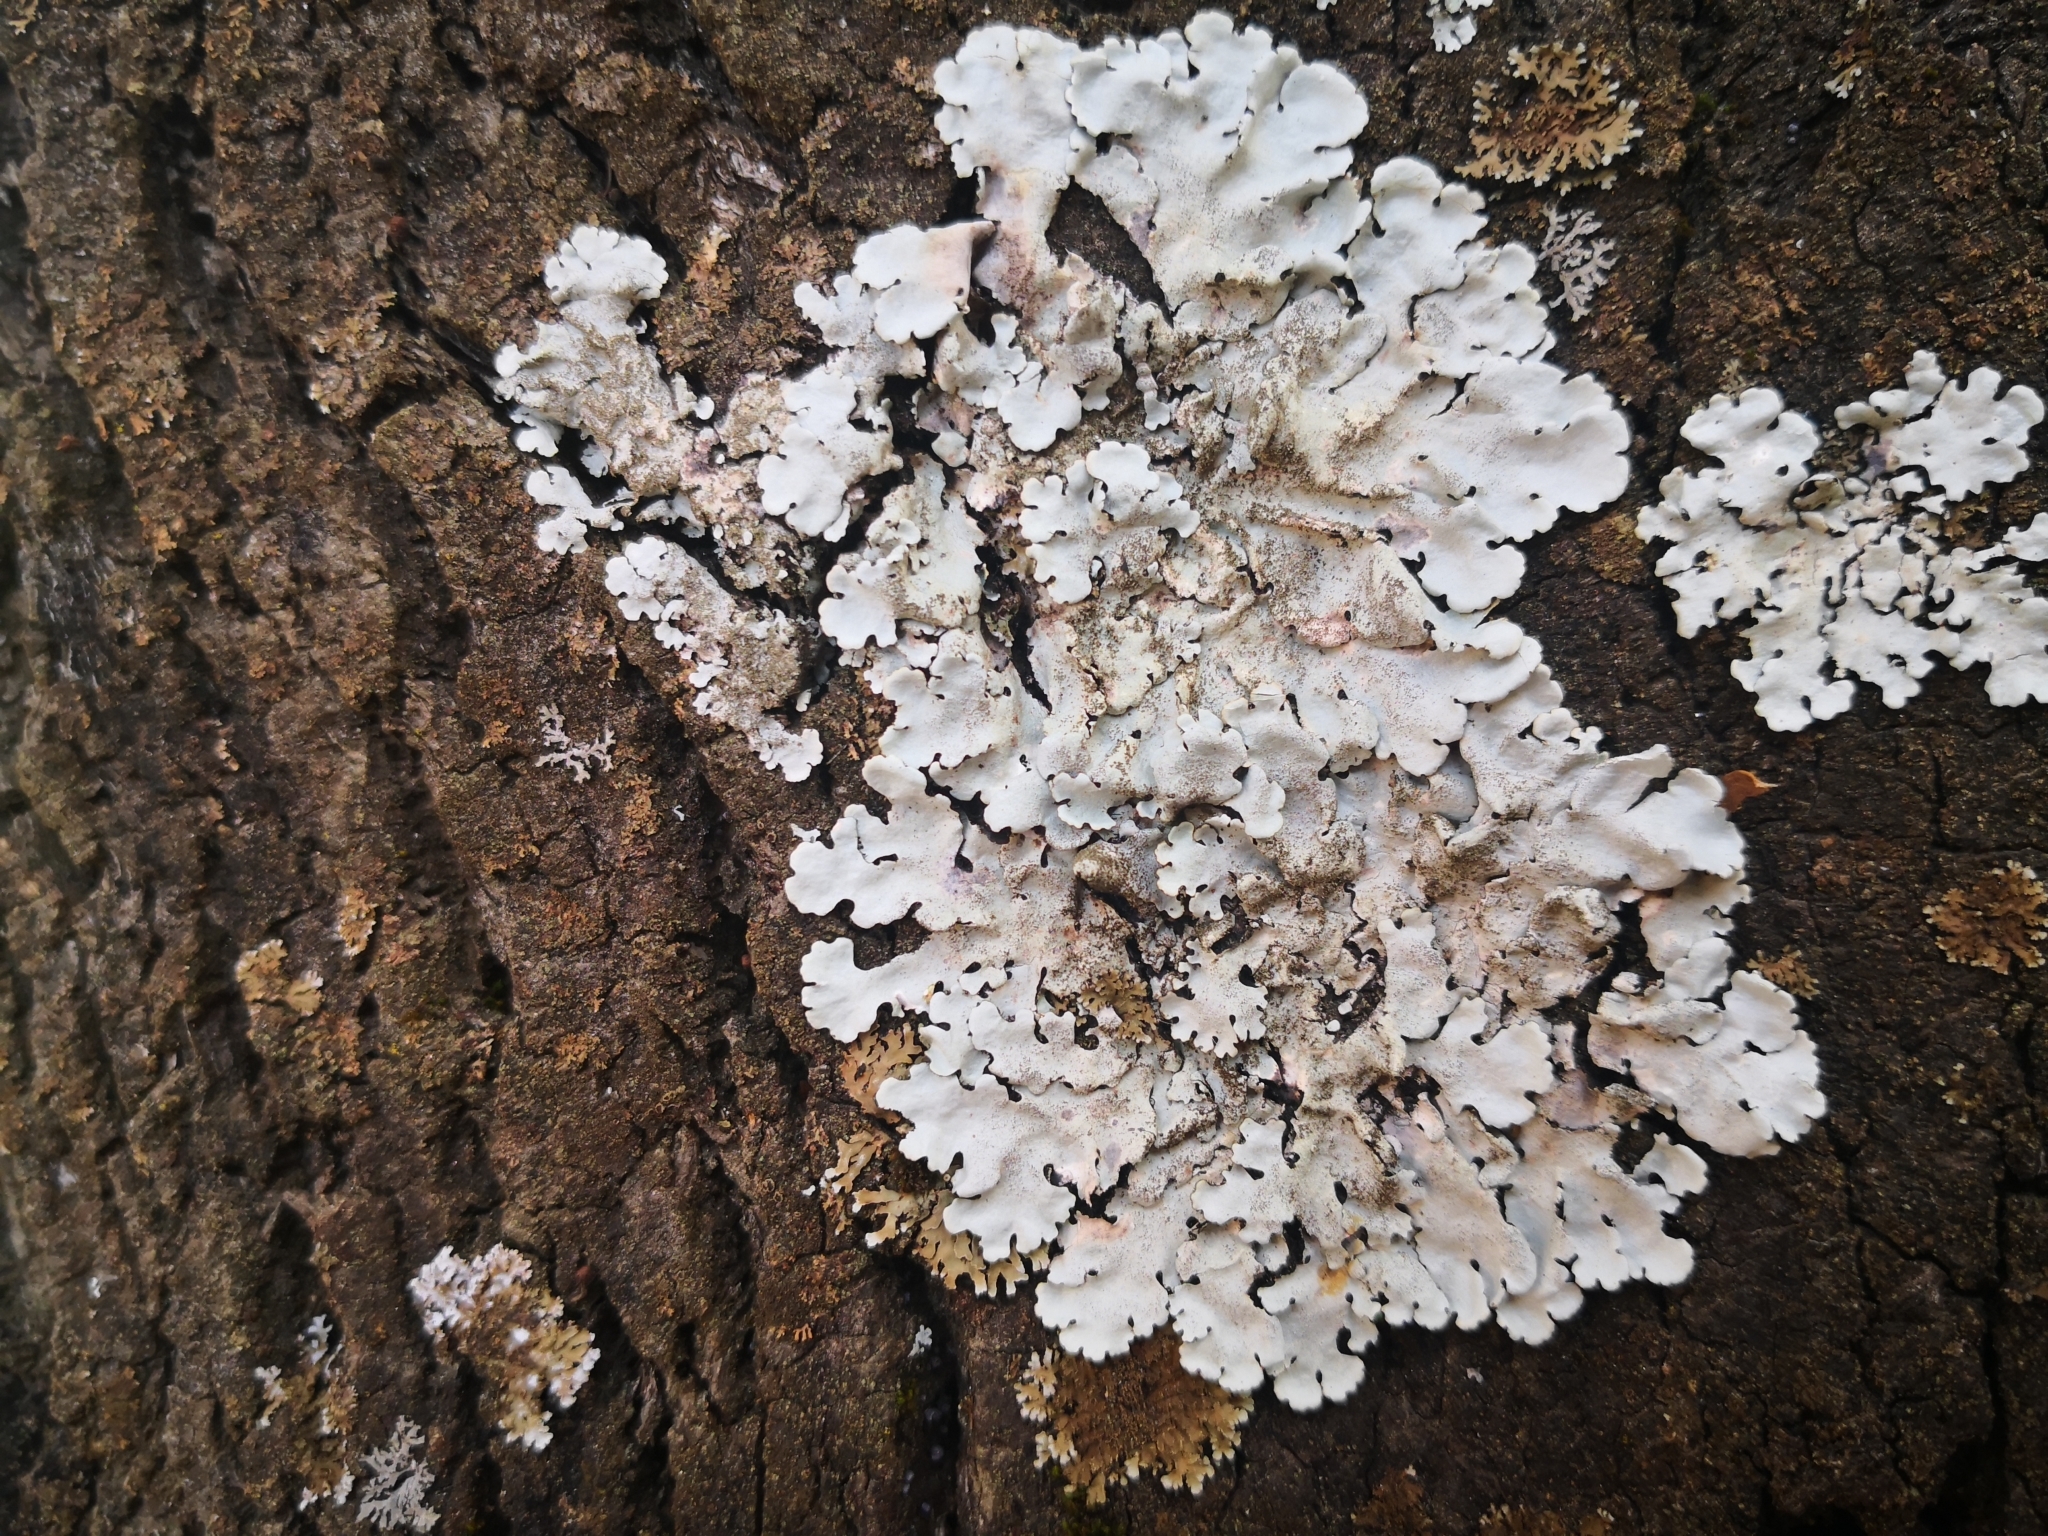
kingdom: Fungi
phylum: Ascomycota
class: Lecanoromycetes
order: Lecanorales
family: Parmeliaceae
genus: Parmelina
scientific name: Parmelina tiliacea
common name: Linden shield lichen
